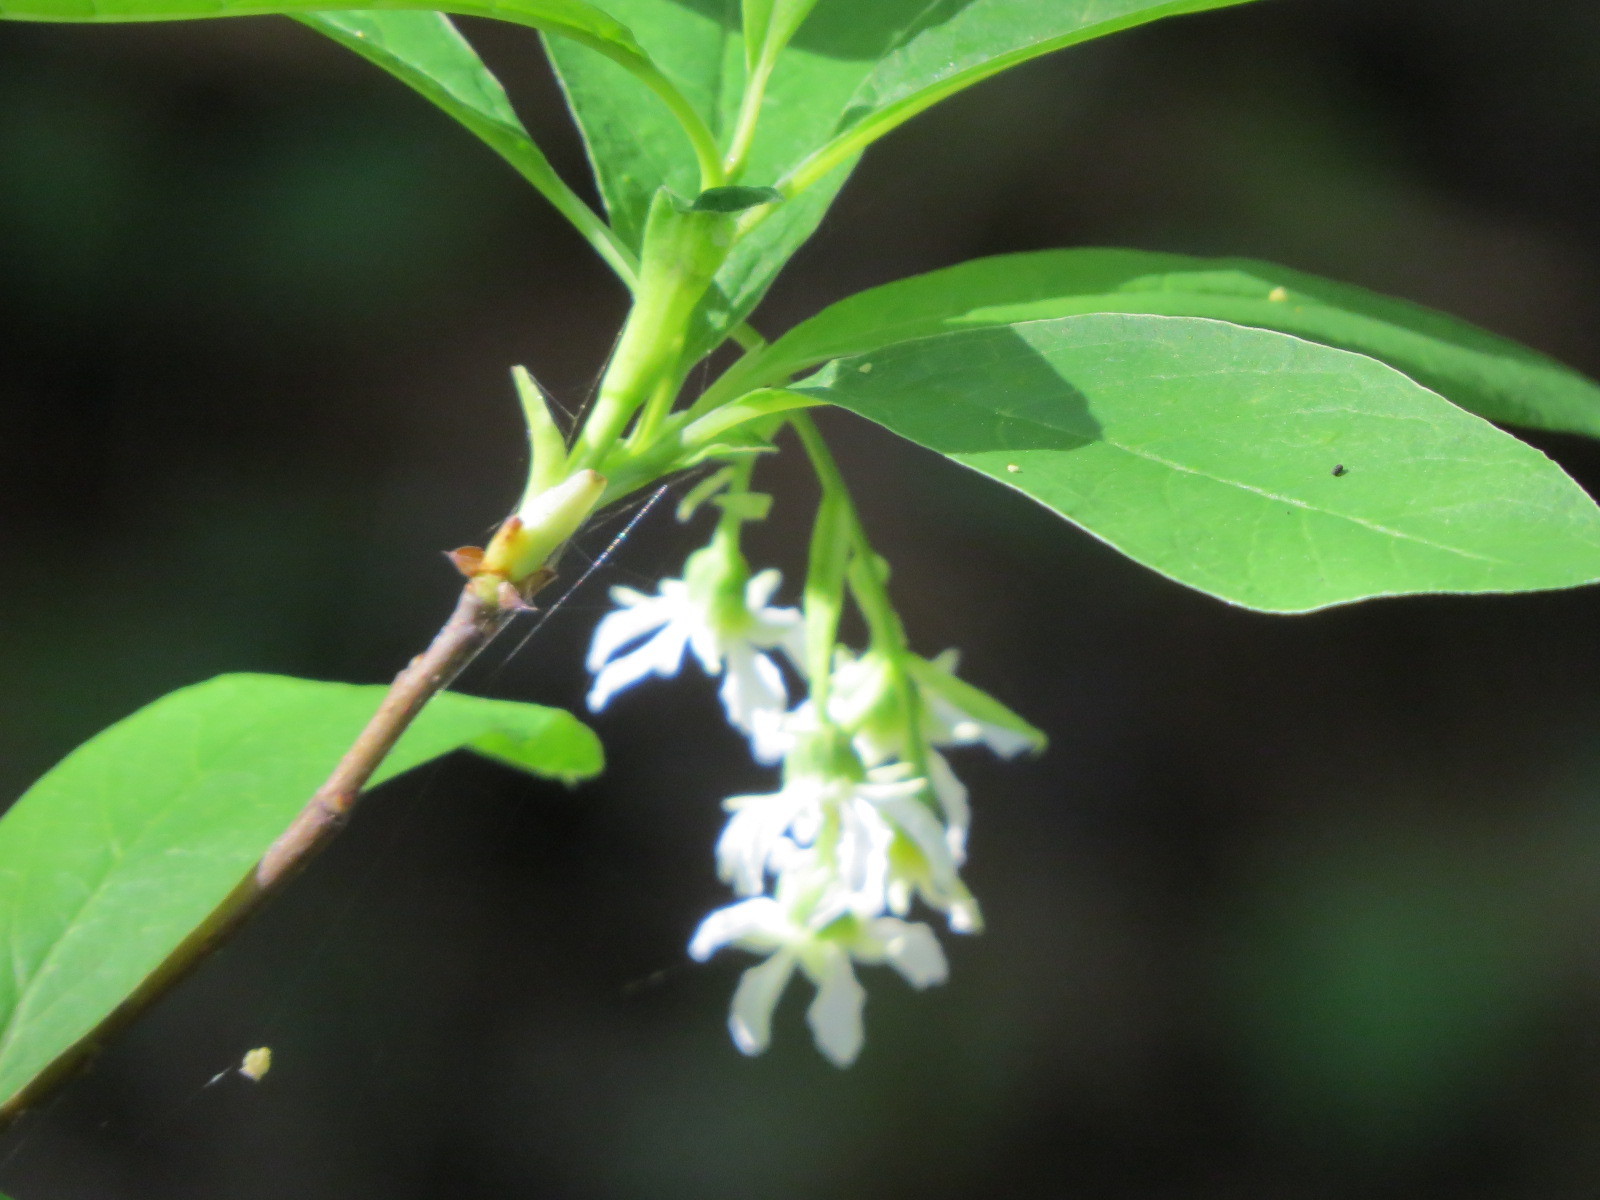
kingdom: Plantae
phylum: Tracheophyta
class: Magnoliopsida
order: Rosales
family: Rosaceae
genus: Oemleria
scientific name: Oemleria cerasiformis
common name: Osoberry
